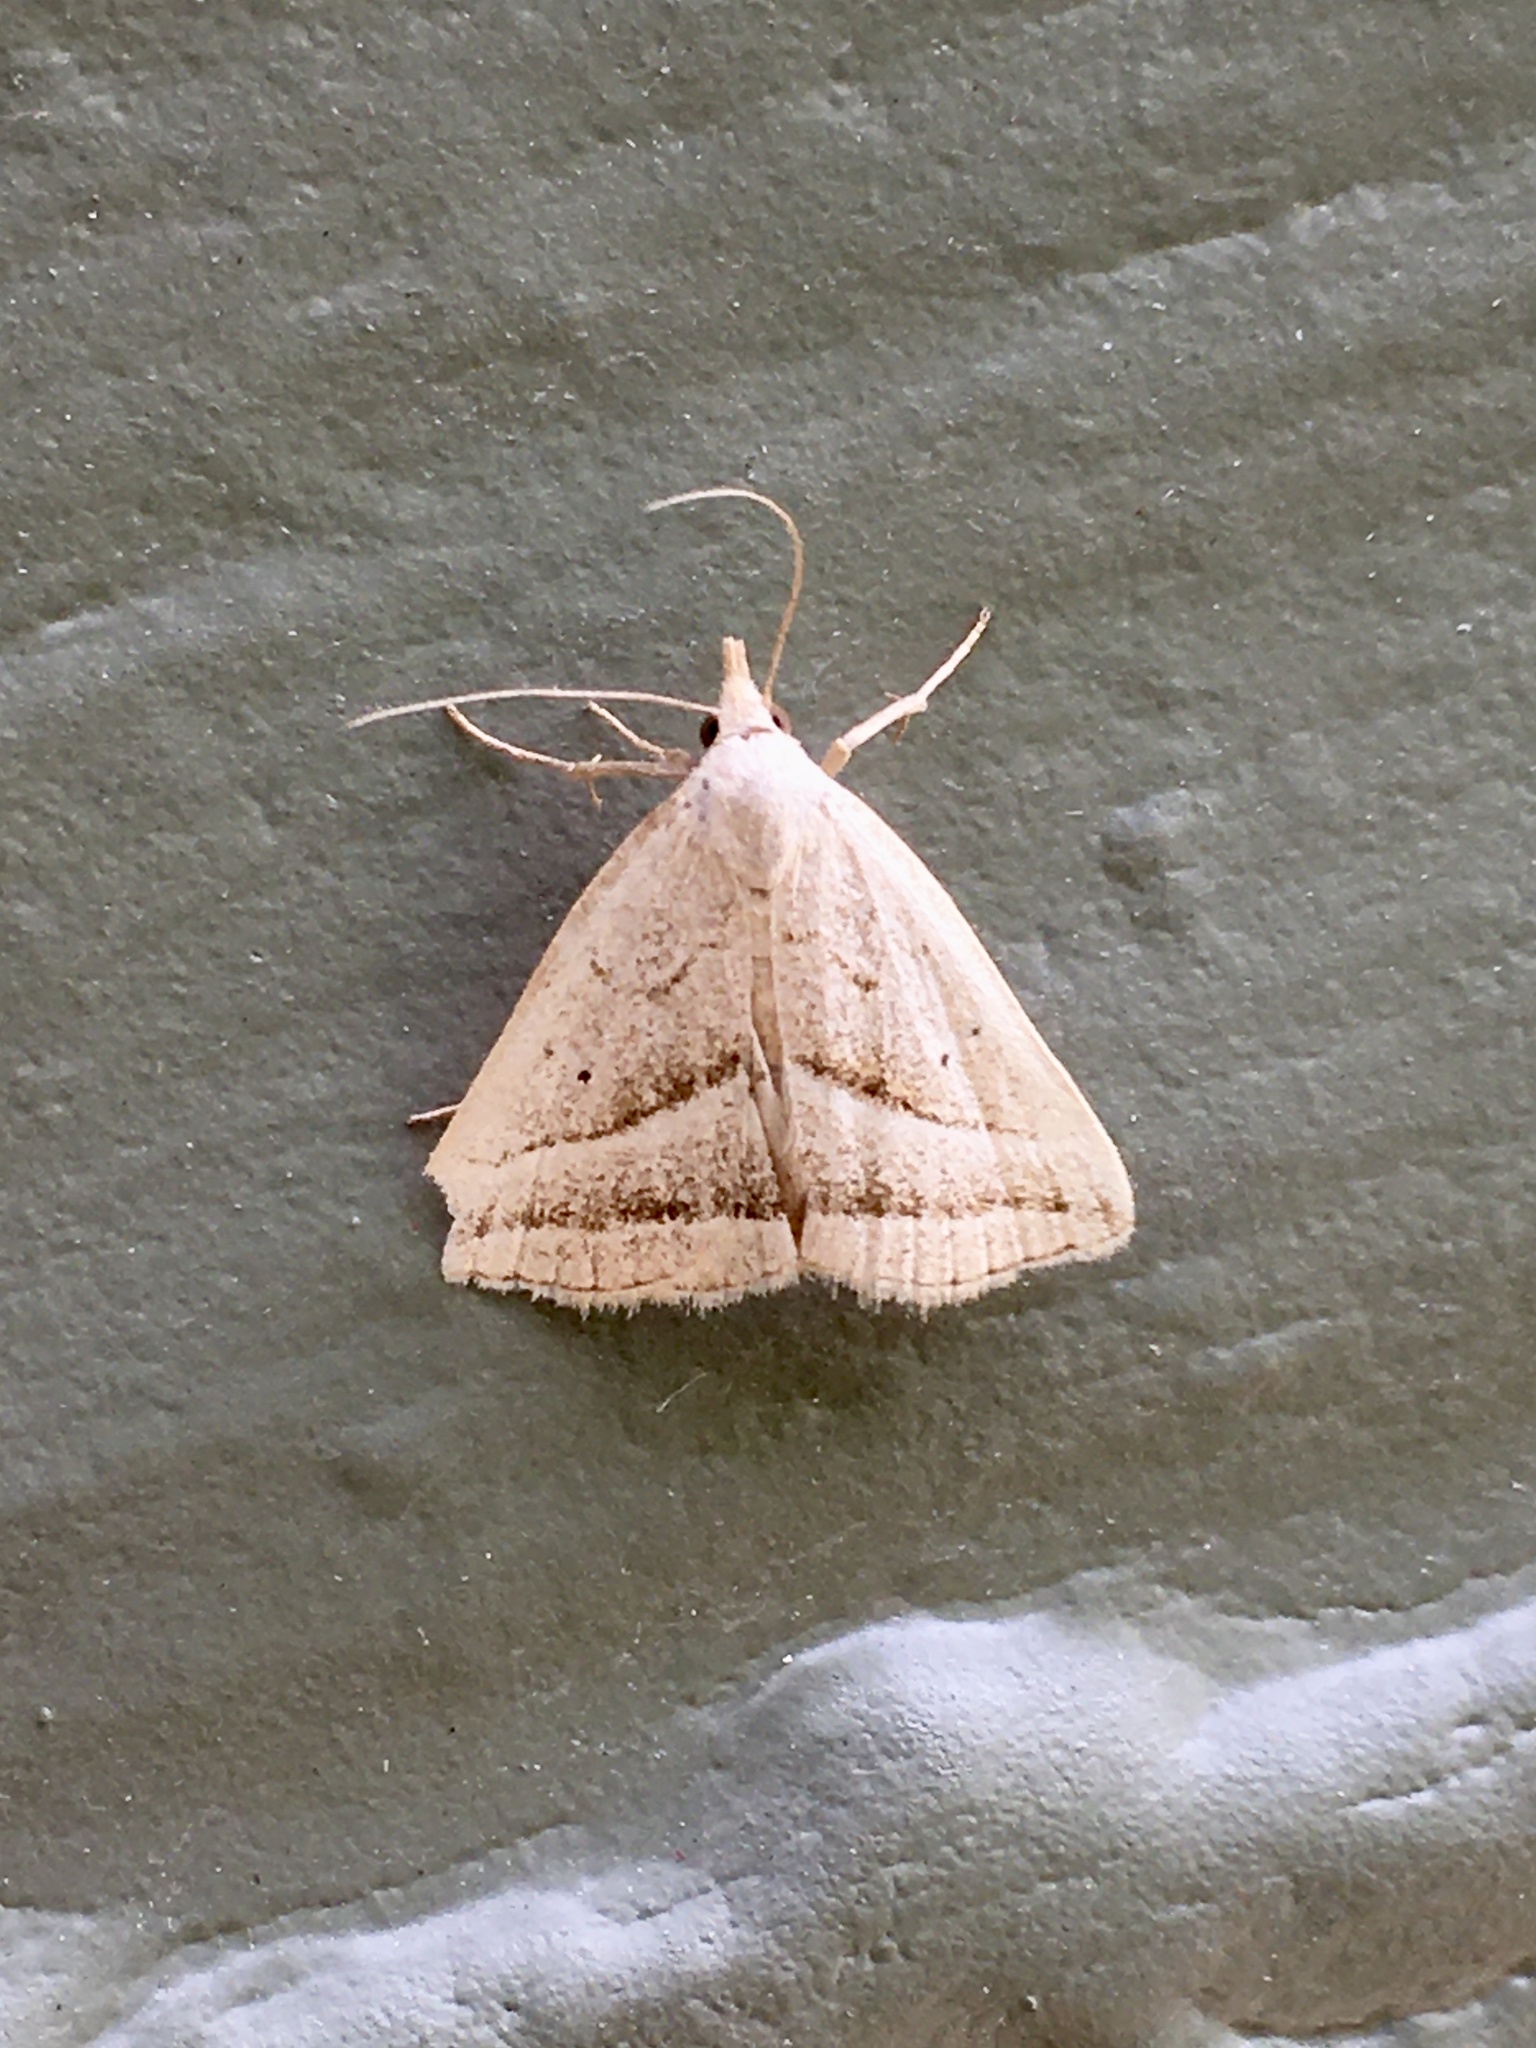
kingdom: Animalia
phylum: Arthropoda
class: Insecta
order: Lepidoptera
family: Erebidae
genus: Macrochilo
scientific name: Macrochilo absorptalis
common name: Slant-lined owlet
